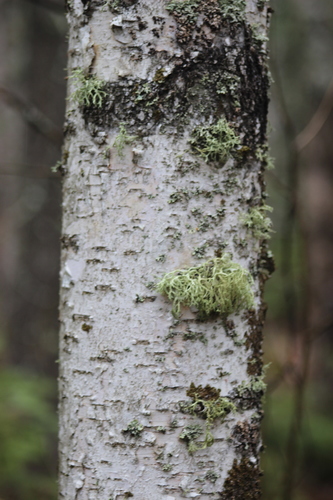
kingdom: Fungi
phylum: Ascomycota
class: Lecanoromycetes
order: Lecanorales
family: Parmeliaceae
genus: Evernia
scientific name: Evernia mesomorpha
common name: Boreal oak moss lichen
